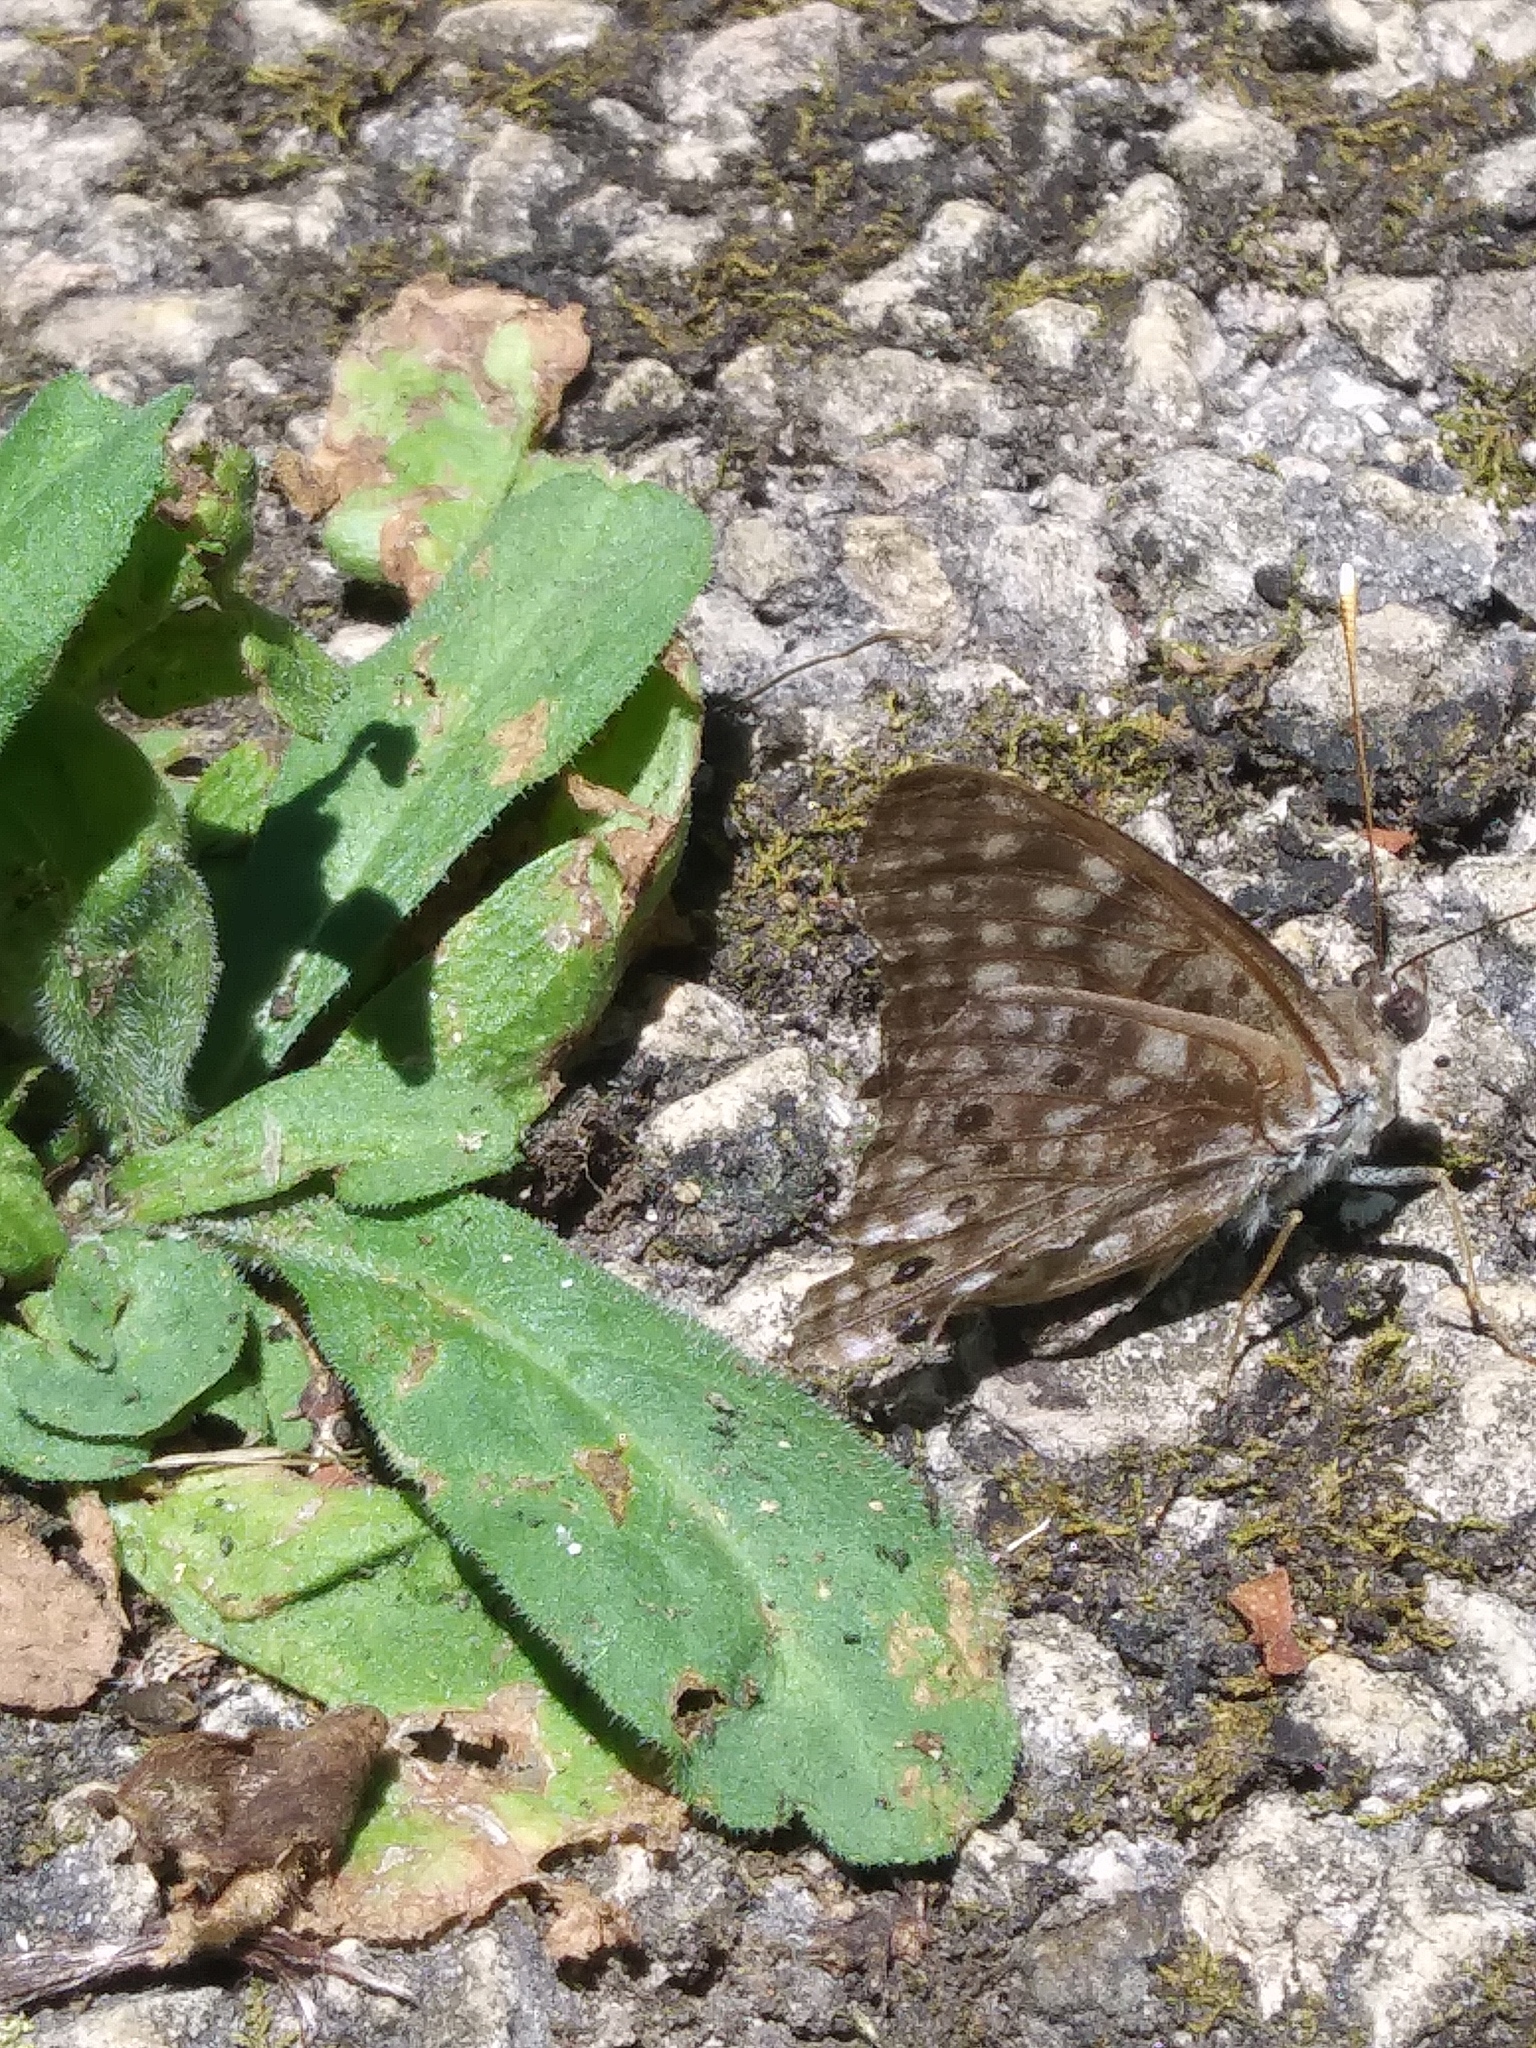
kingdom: Animalia
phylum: Arthropoda
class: Insecta
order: Lepidoptera
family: Nymphalidae
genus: Asterocampa
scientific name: Asterocampa celtis
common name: Hackberry emperor
